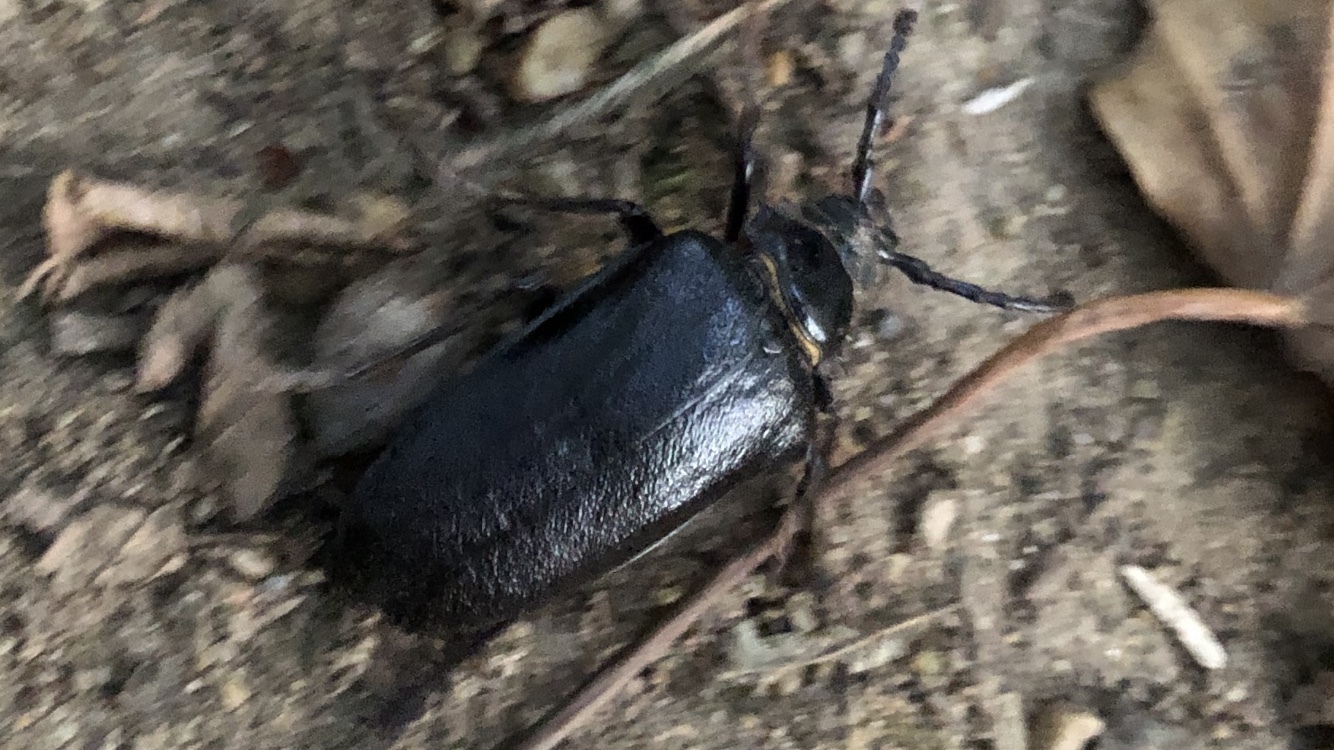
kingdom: Animalia
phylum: Arthropoda
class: Insecta
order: Coleoptera
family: Cerambycidae
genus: Prionus
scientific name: Prionus coriarius
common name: Tanner beetle
